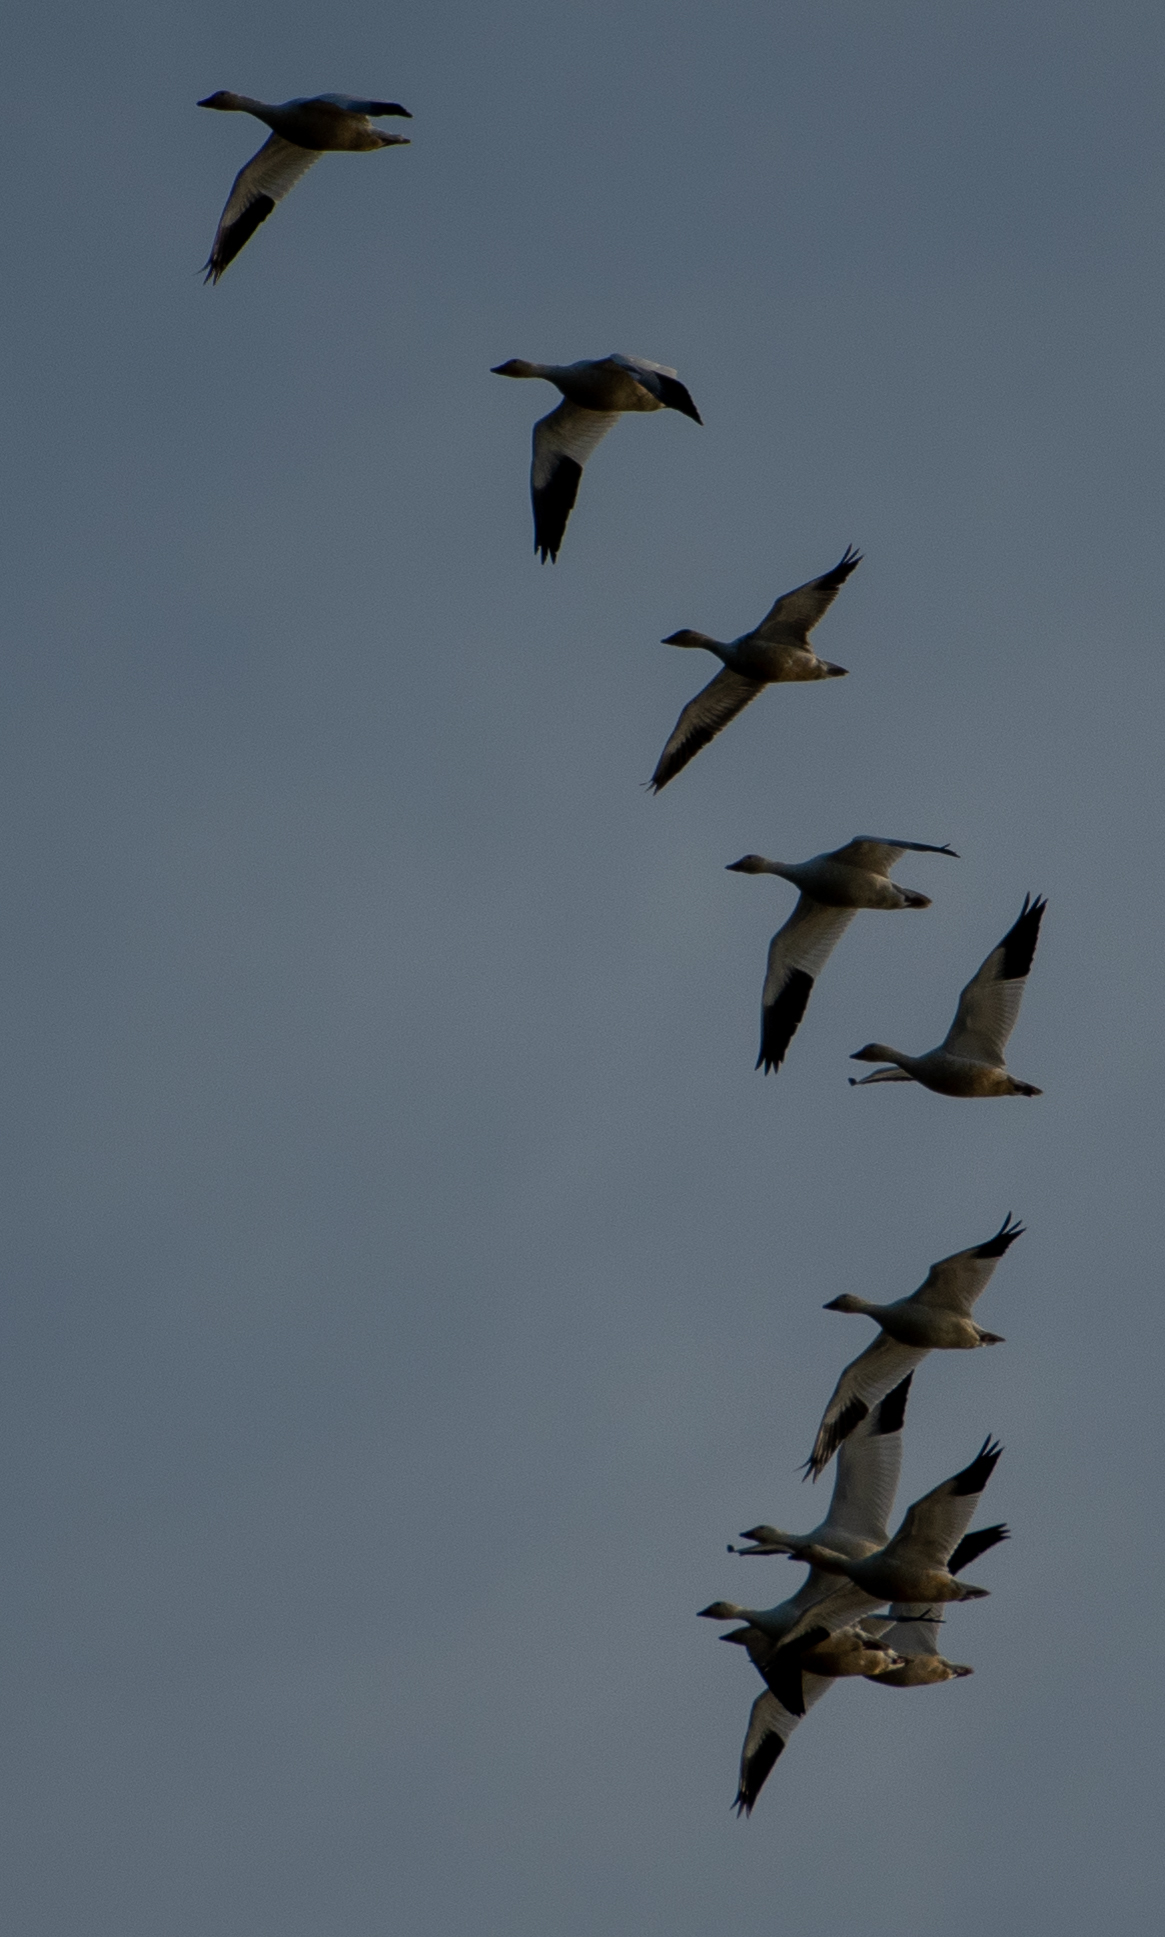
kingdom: Animalia
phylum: Chordata
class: Aves
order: Anseriformes
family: Anatidae
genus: Anser
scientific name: Anser caerulescens
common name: Snow goose
